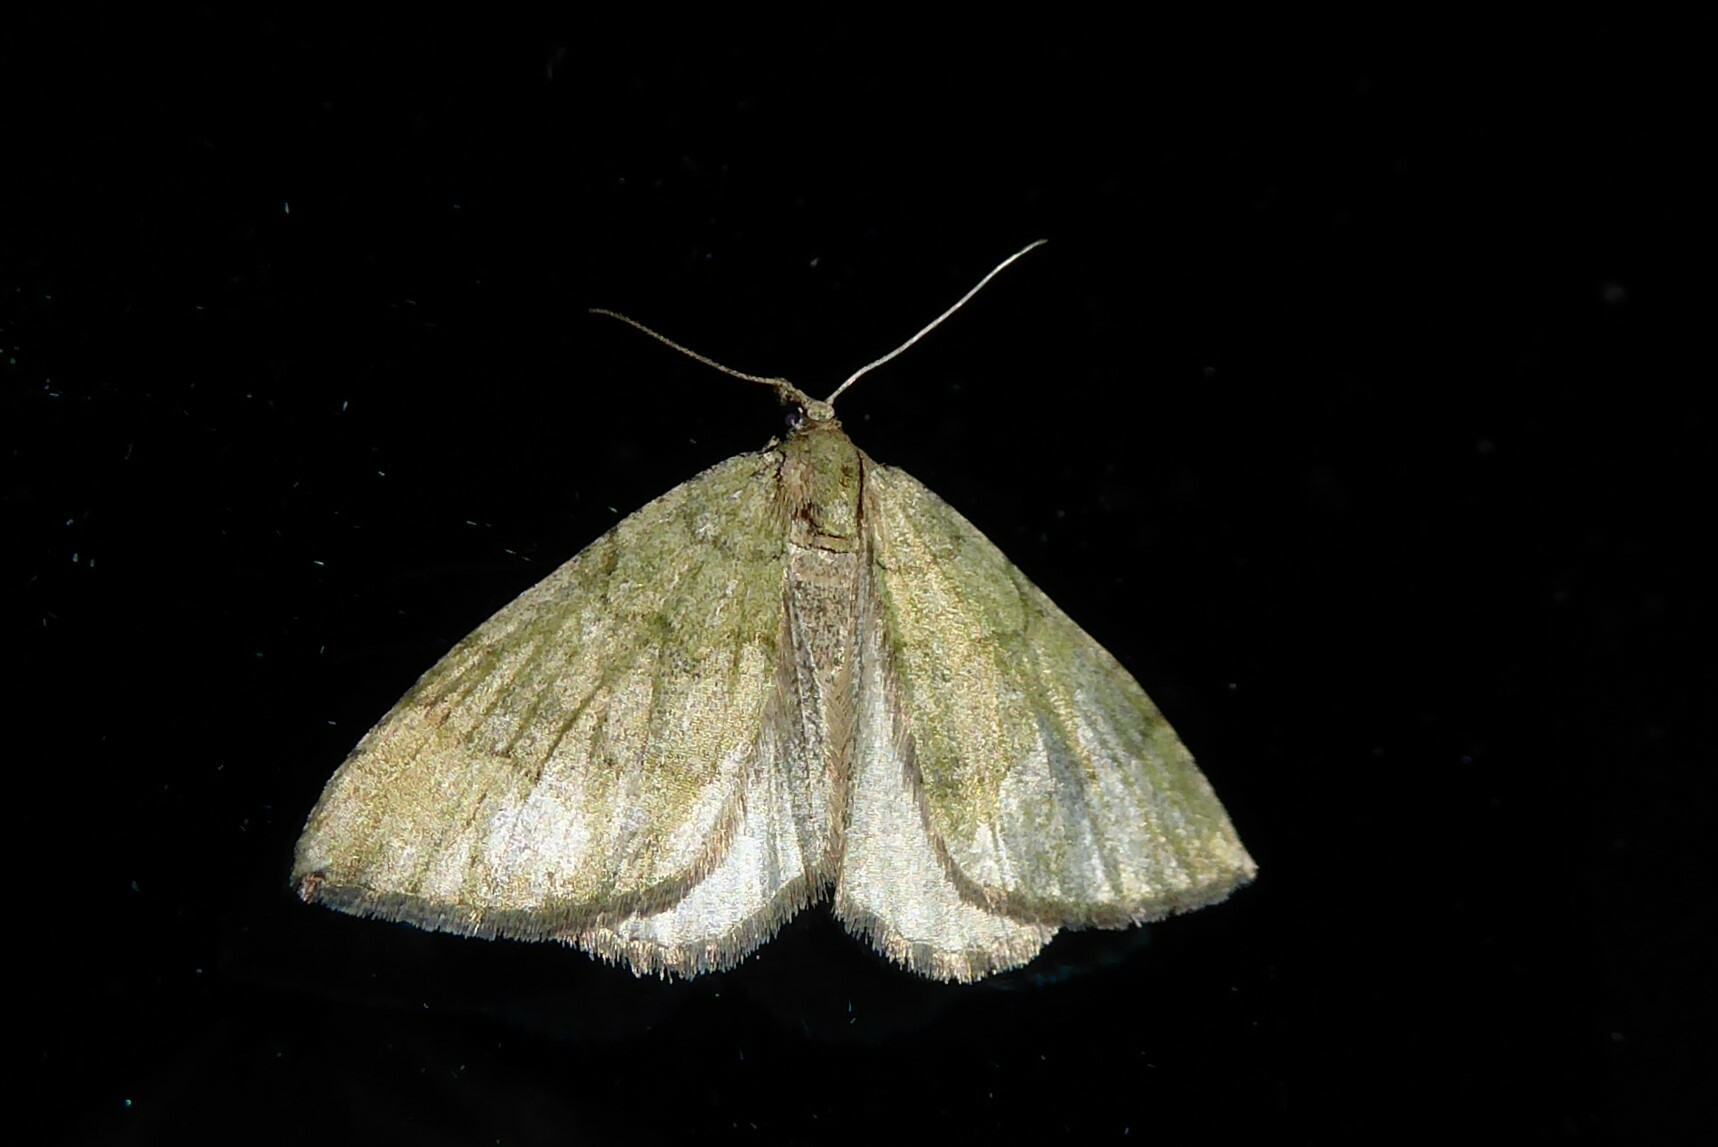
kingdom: Animalia
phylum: Arthropoda
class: Insecta
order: Lepidoptera
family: Geometridae
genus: Epyaxa
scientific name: Epyaxa rosearia
